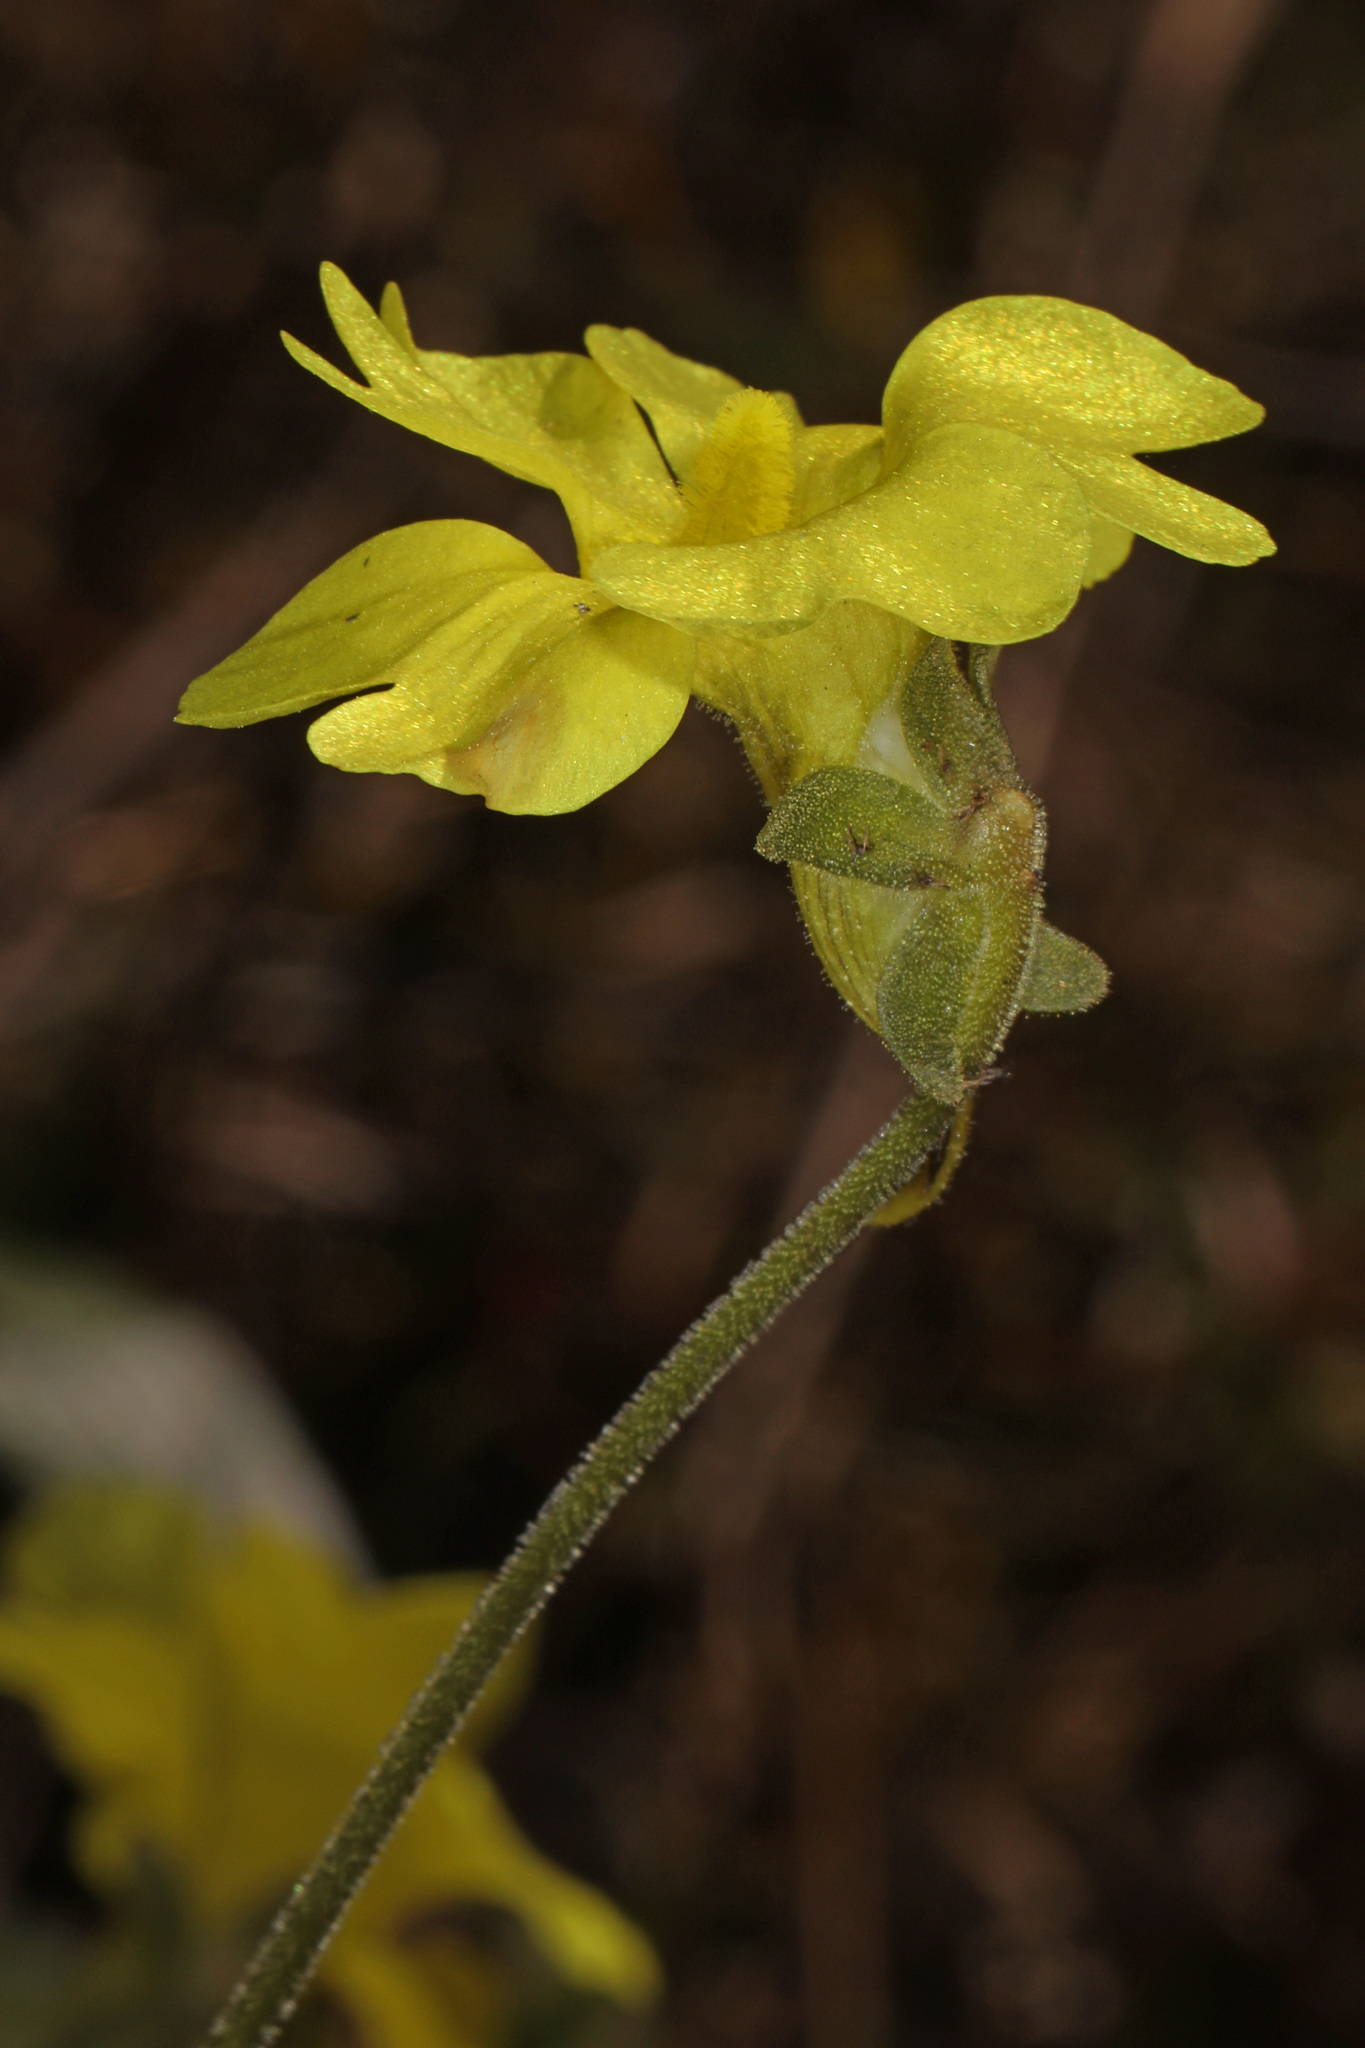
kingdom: Plantae
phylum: Tracheophyta
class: Magnoliopsida
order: Lamiales
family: Lentibulariaceae
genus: Pinguicula
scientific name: Pinguicula lutea
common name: Yellow butterwort
